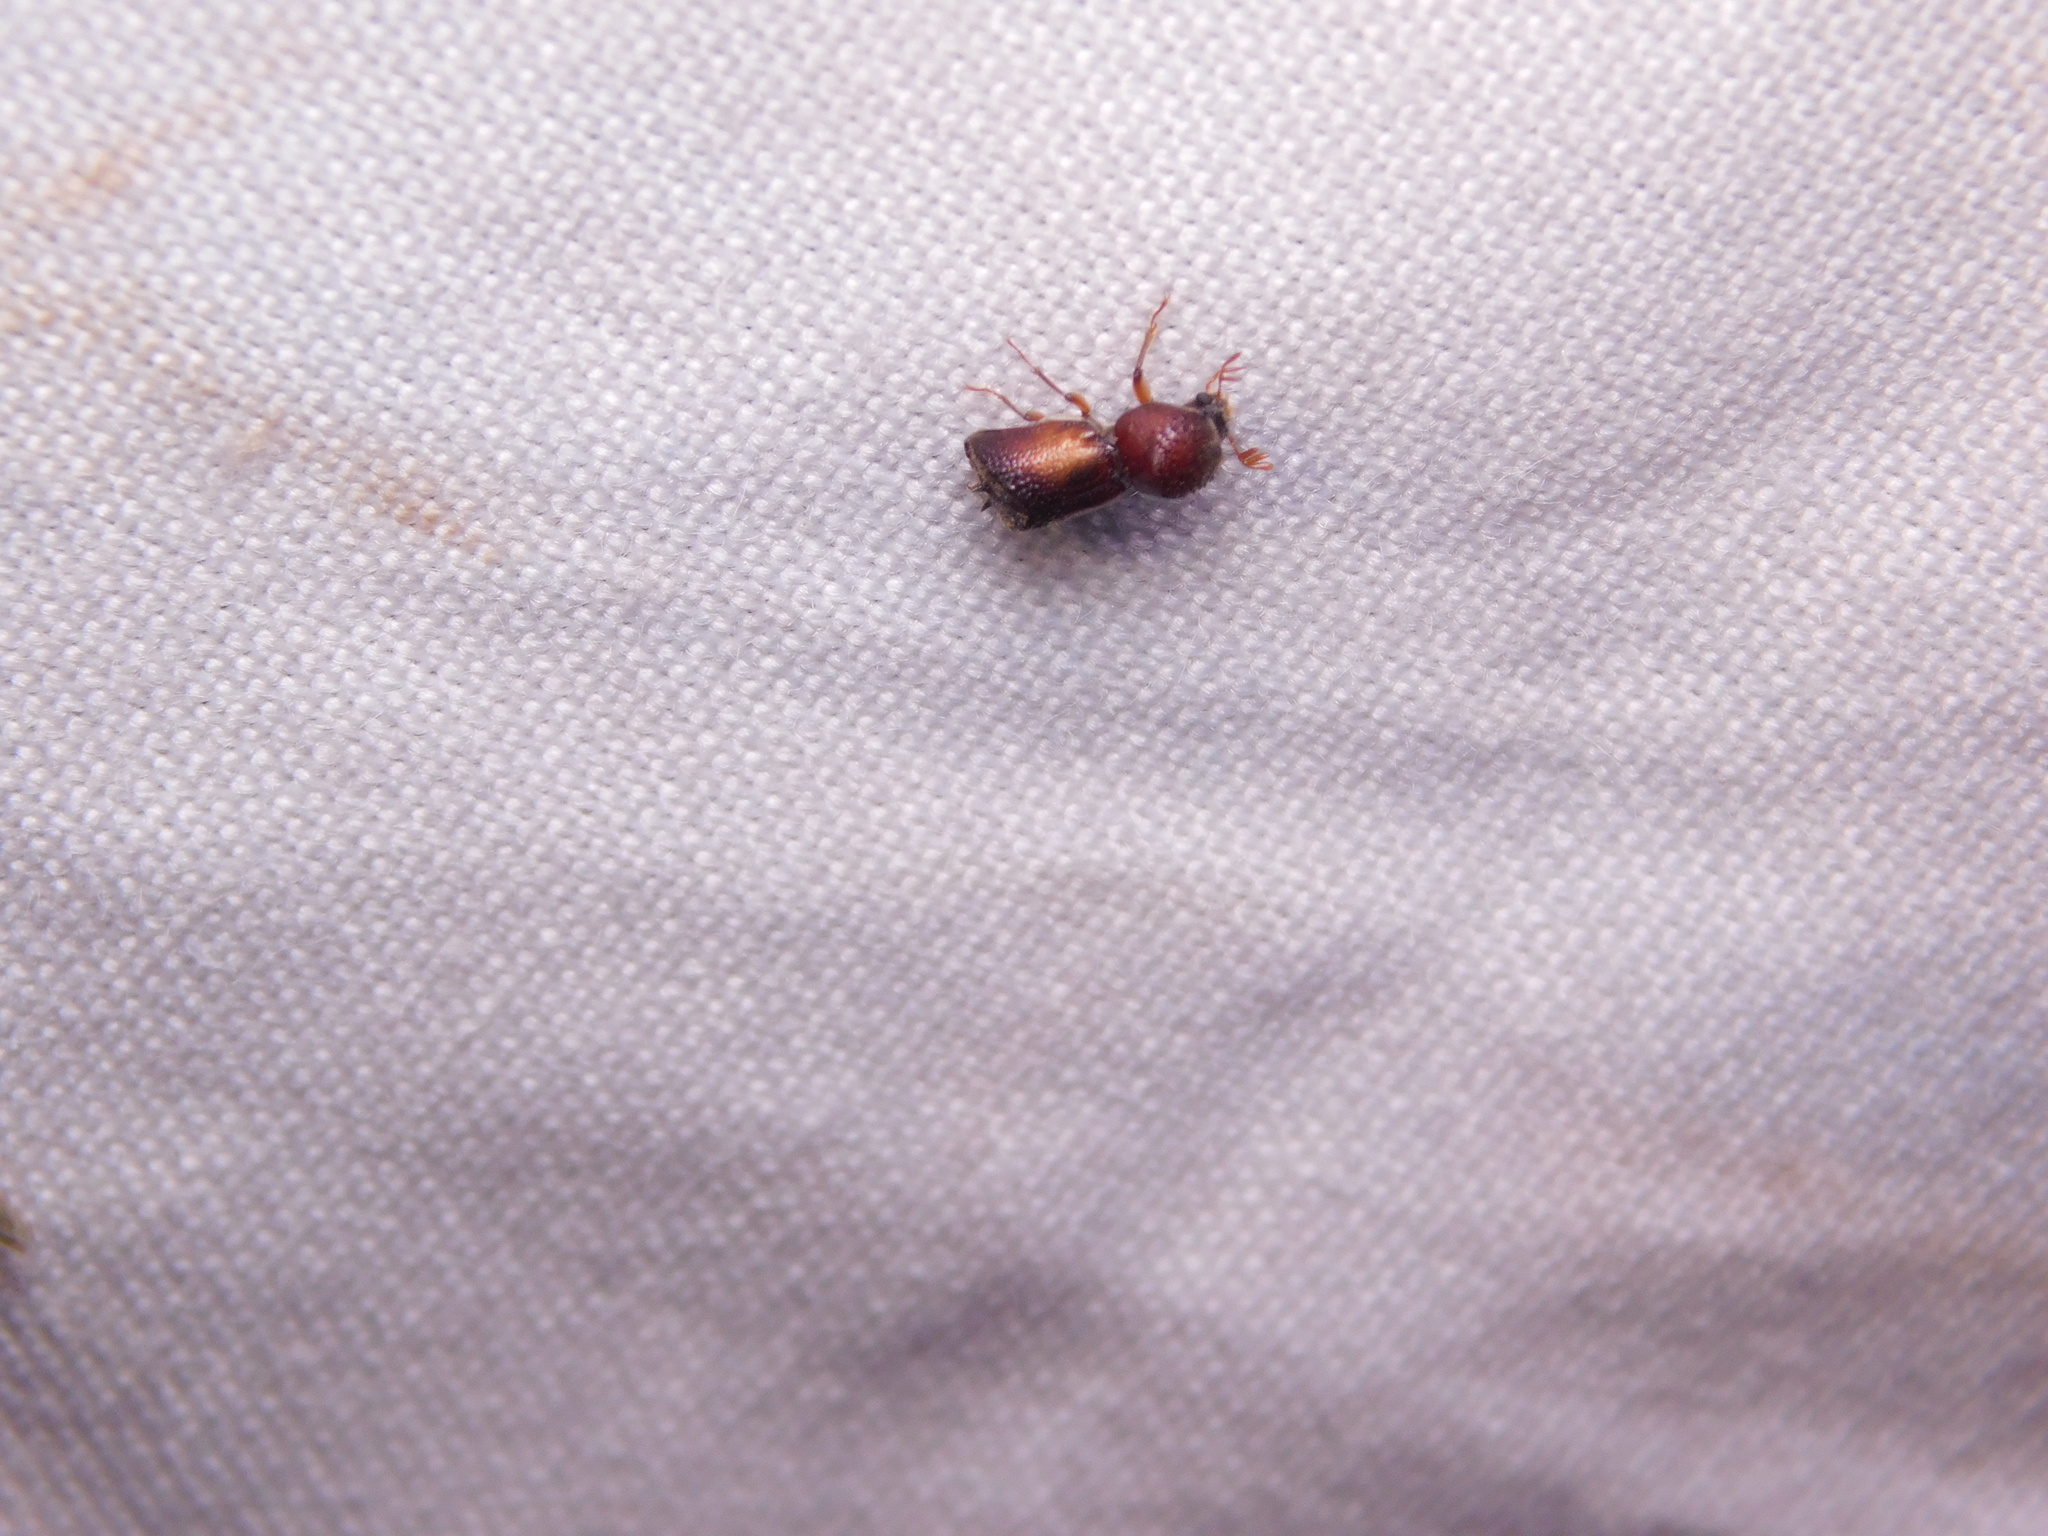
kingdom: Animalia
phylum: Arthropoda
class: Insecta
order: Coleoptera
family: Bostrichidae
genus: Sinoxylon
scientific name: Sinoxylon anale
